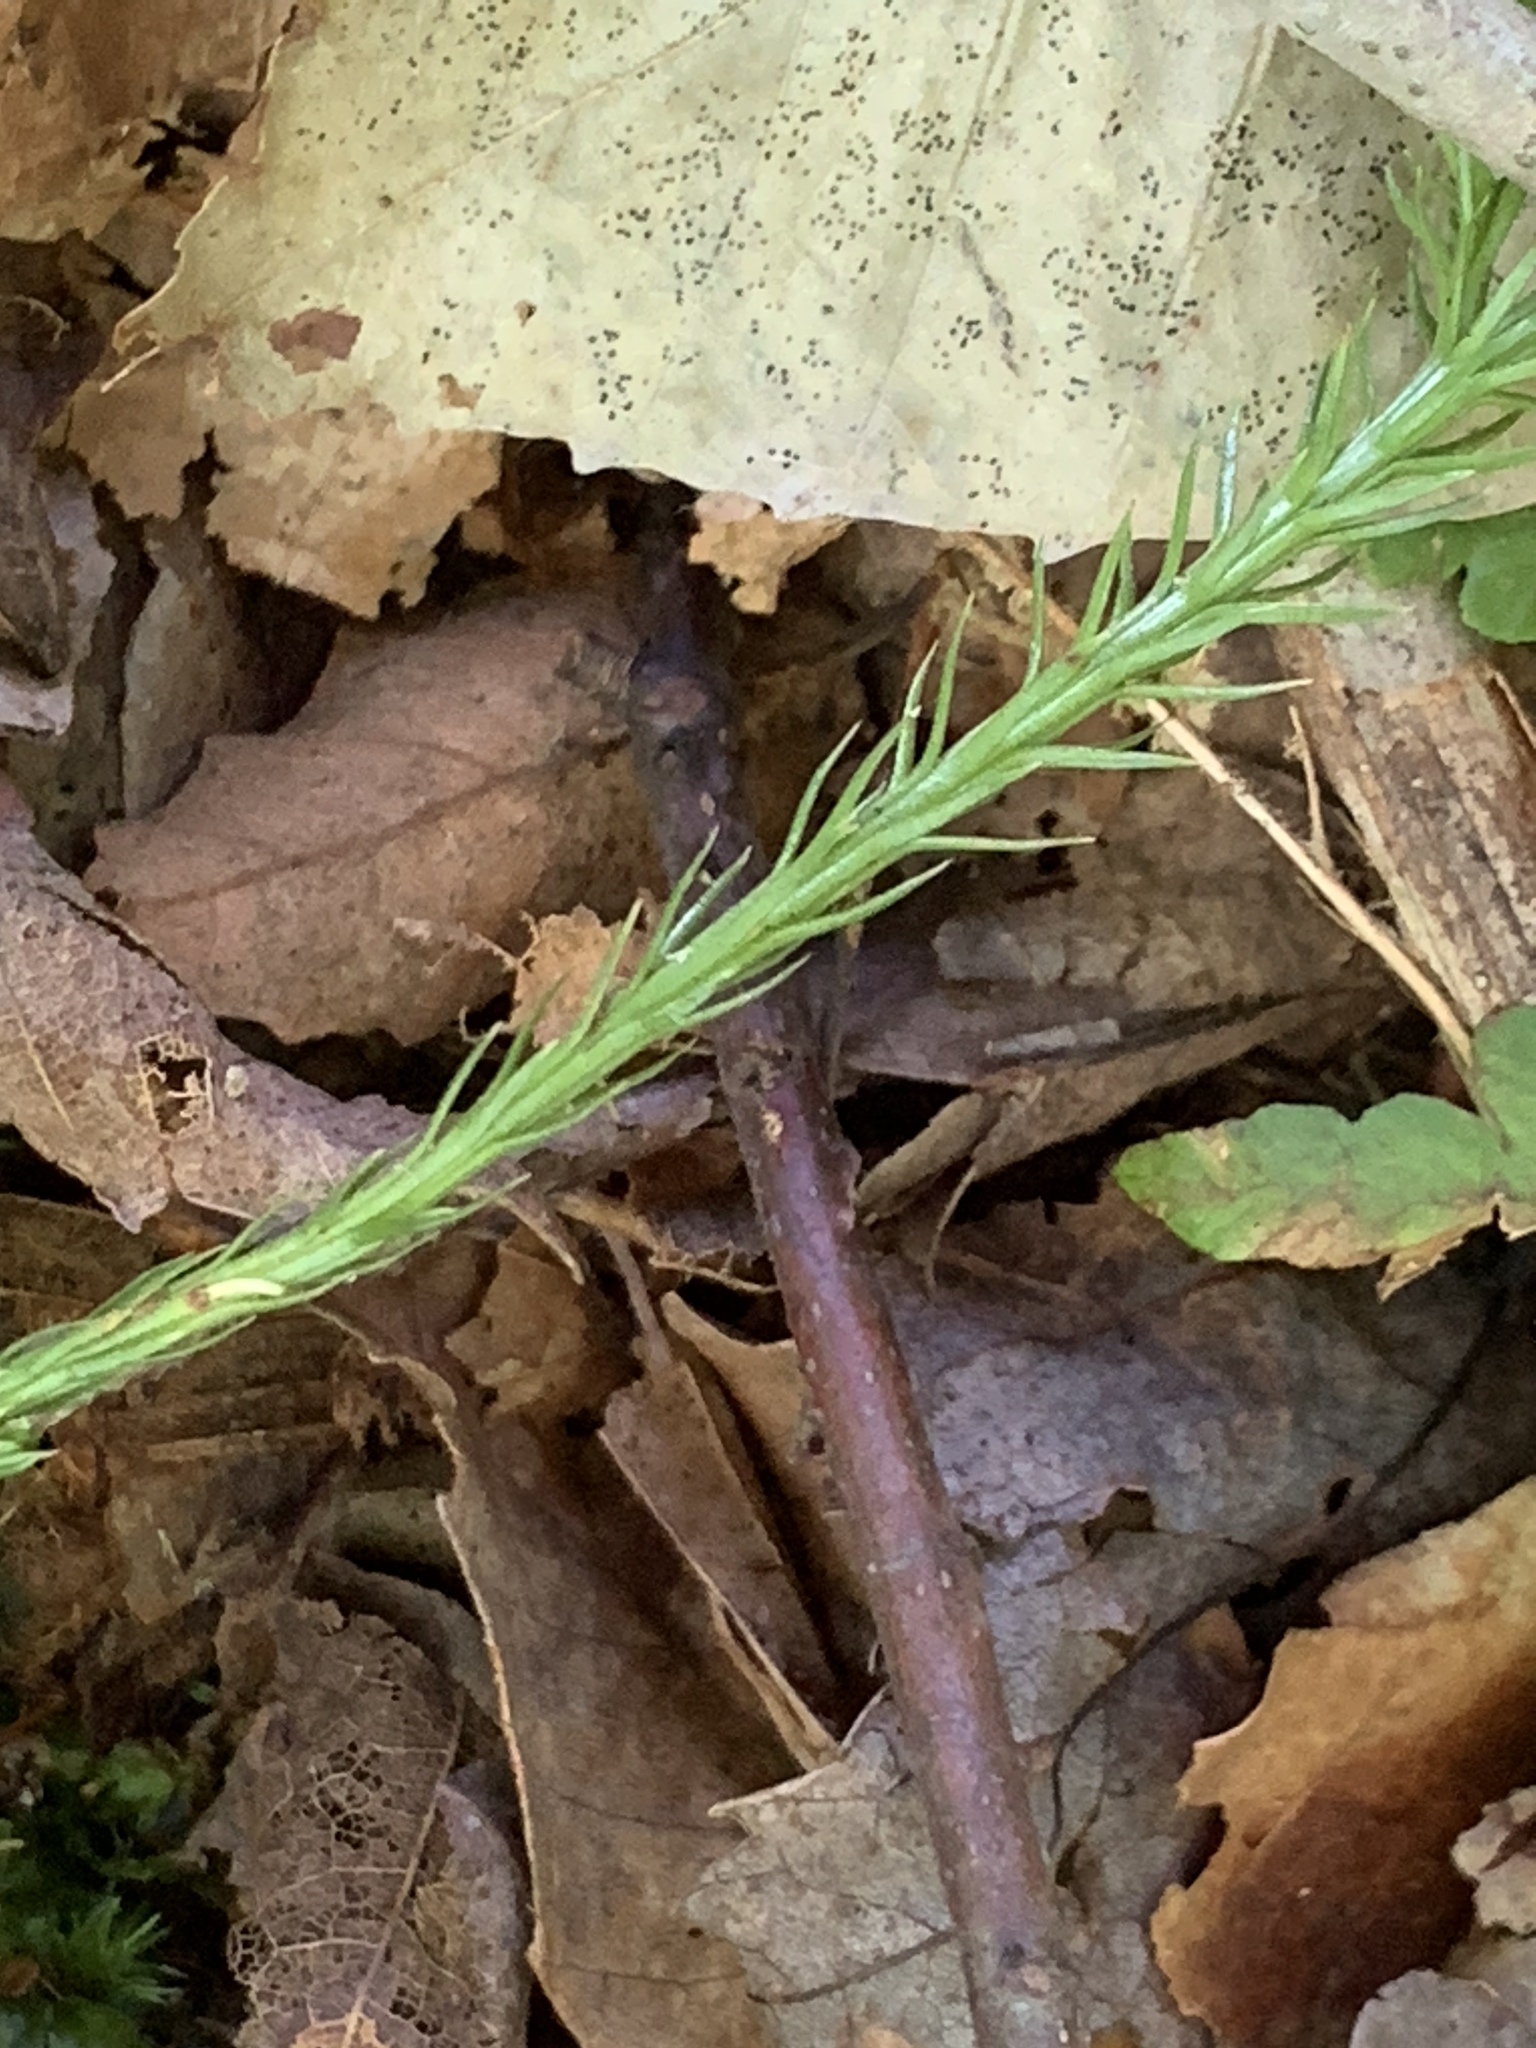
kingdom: Plantae
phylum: Tracheophyta
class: Lycopodiopsida
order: Lycopodiales
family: Lycopodiaceae
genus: Dendrolycopodium
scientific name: Dendrolycopodium obscurum
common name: Common ground-pine
